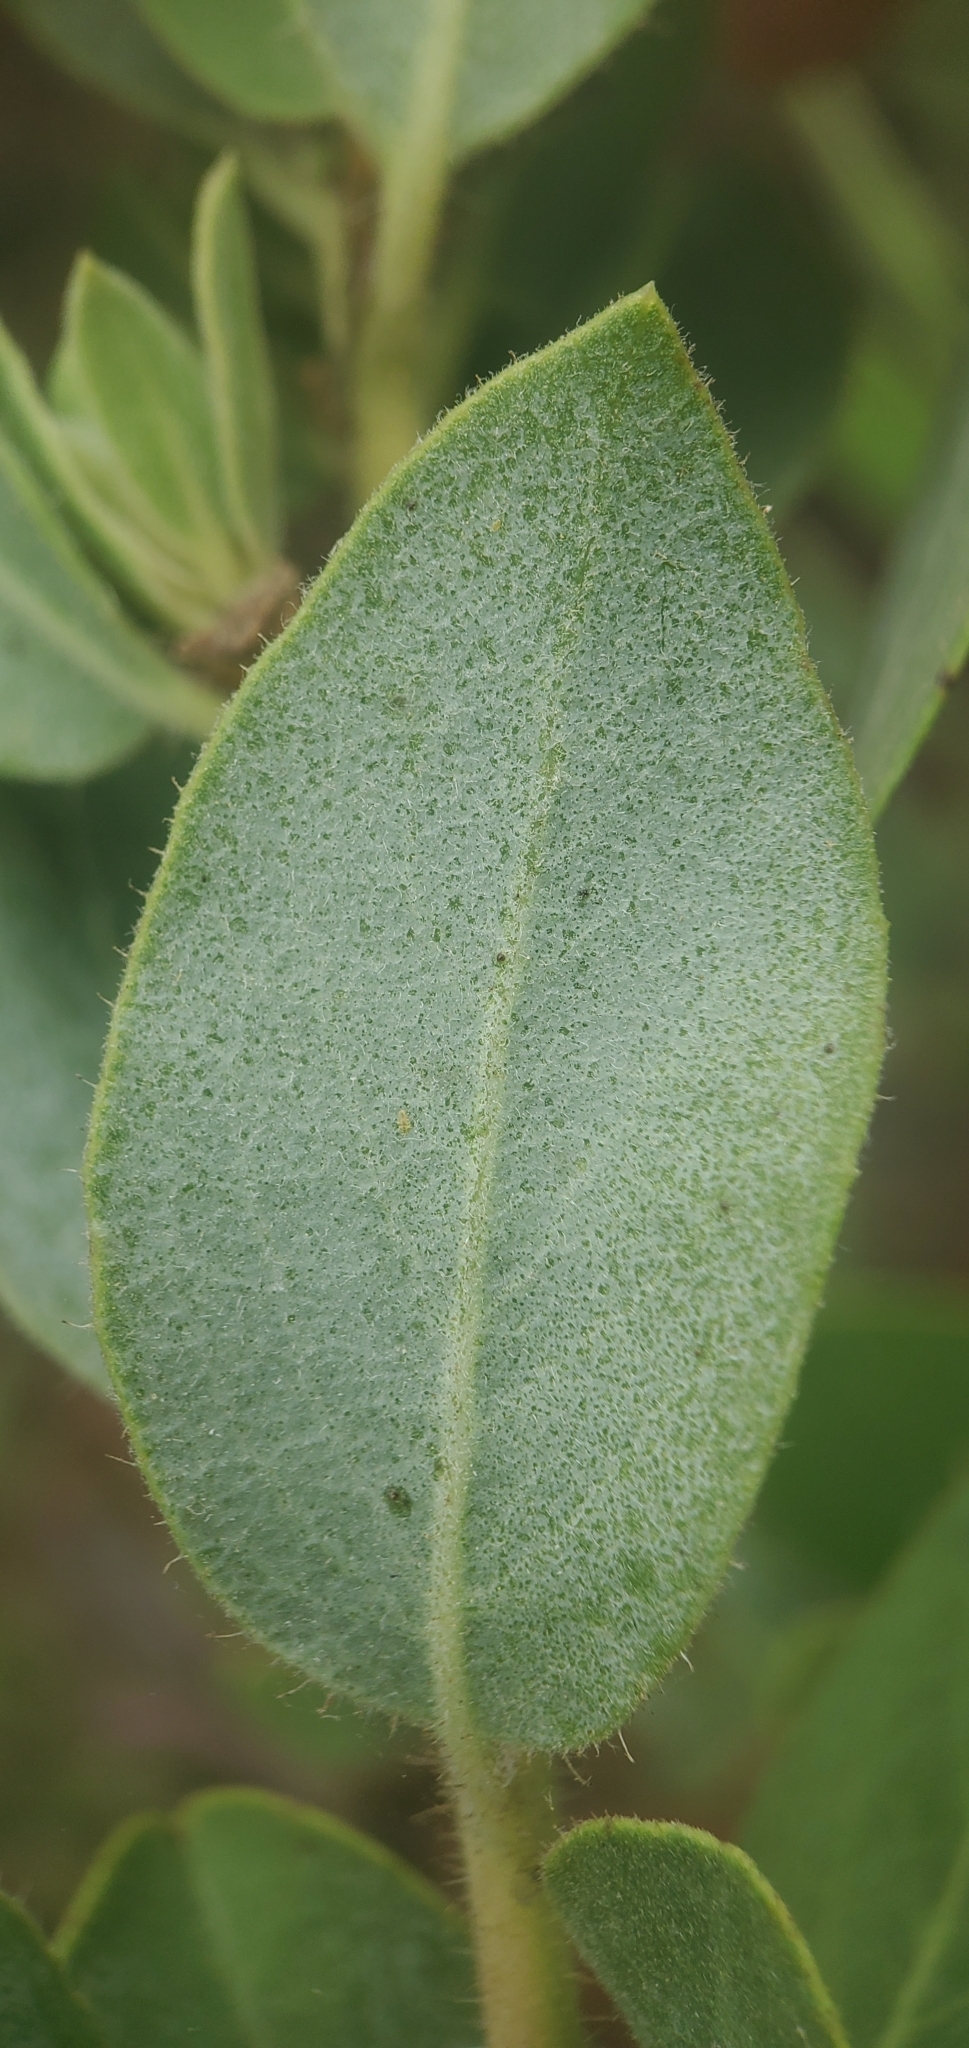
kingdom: Plantae
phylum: Tracheophyta
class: Magnoliopsida
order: Ericales
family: Ericaceae
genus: Arctostaphylos
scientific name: Arctostaphylos glandulosa
